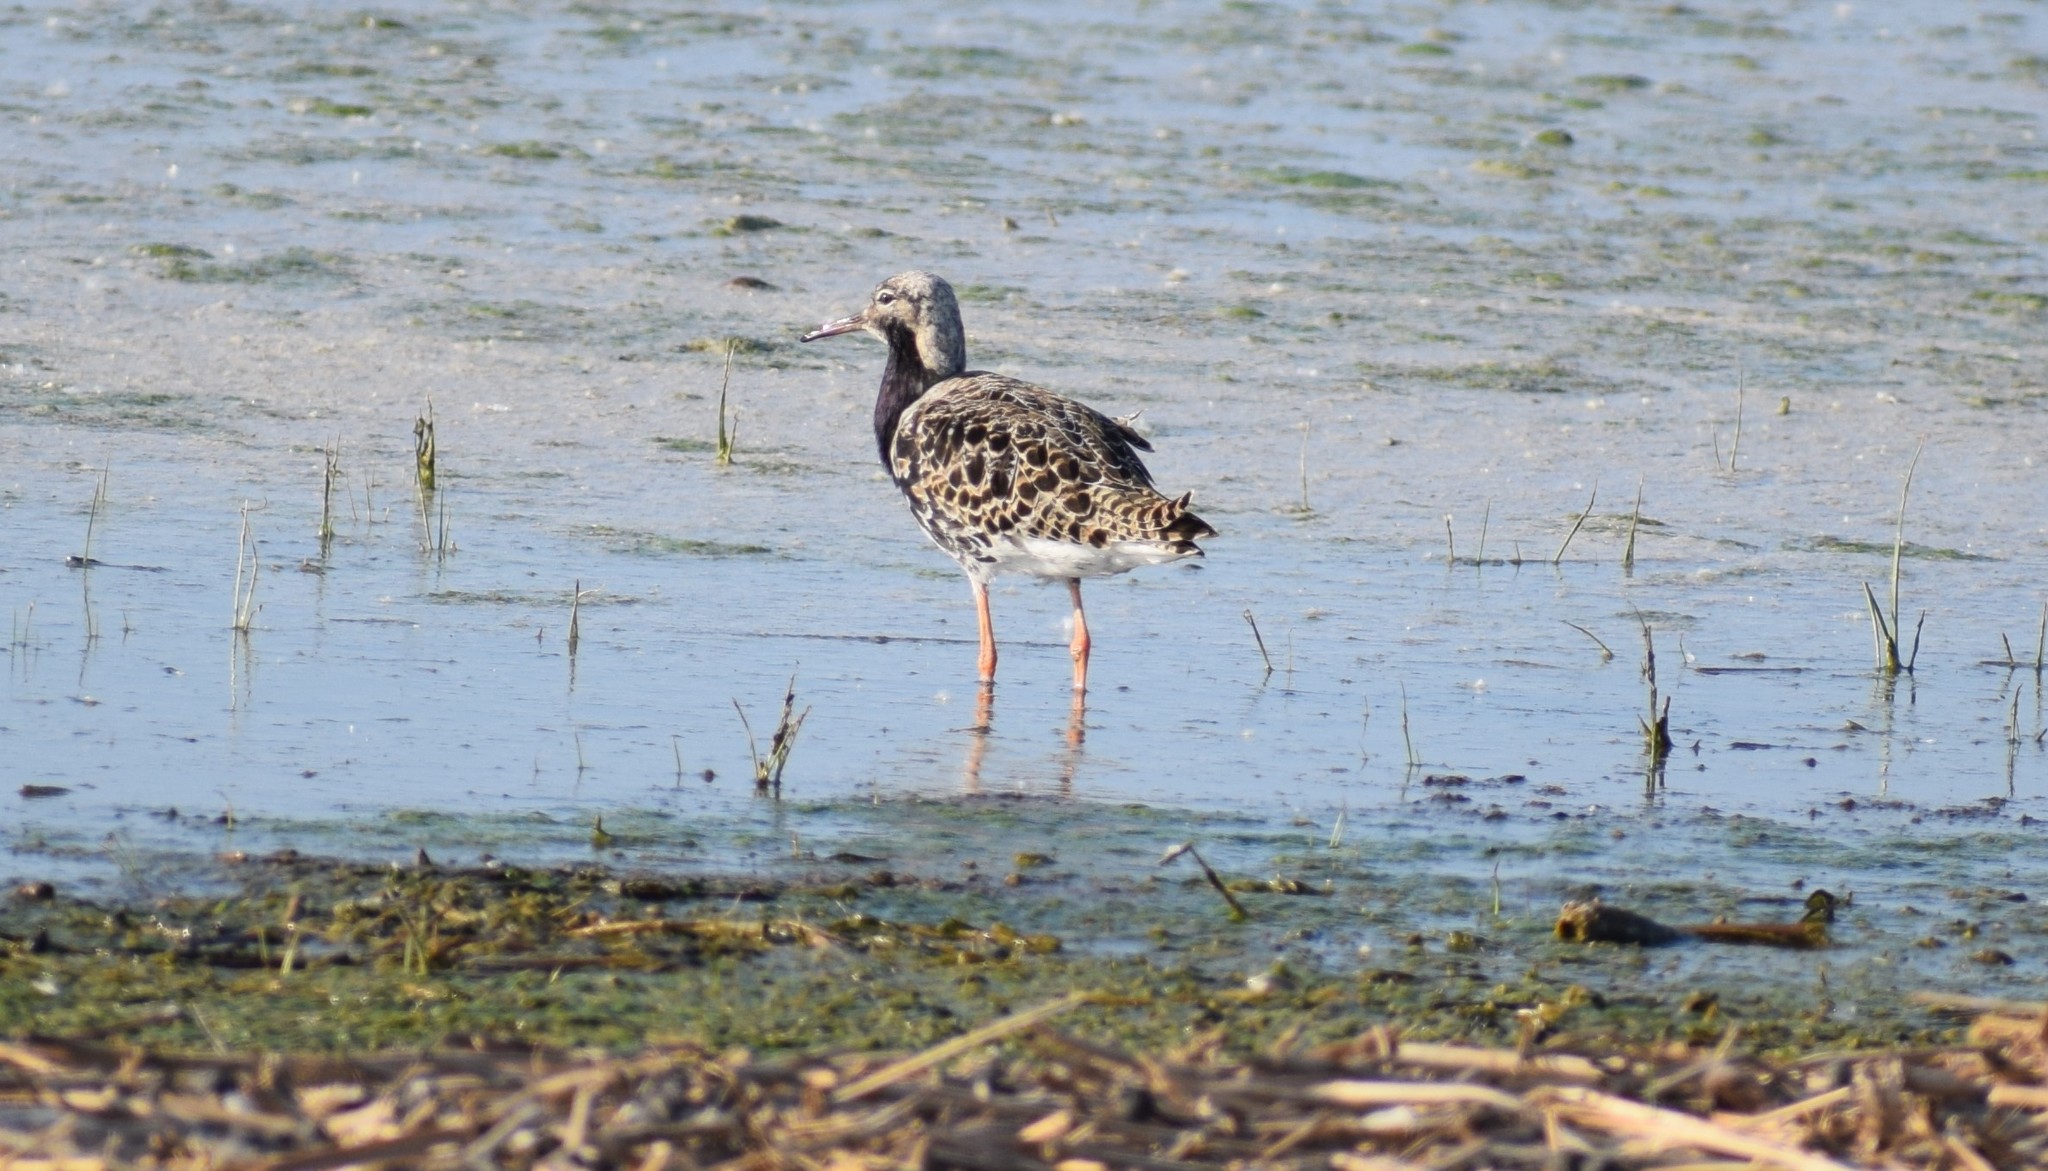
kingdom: Animalia
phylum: Chordata
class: Aves
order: Charadriiformes
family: Scolopacidae
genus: Calidris
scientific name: Calidris pugnax
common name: Ruff
